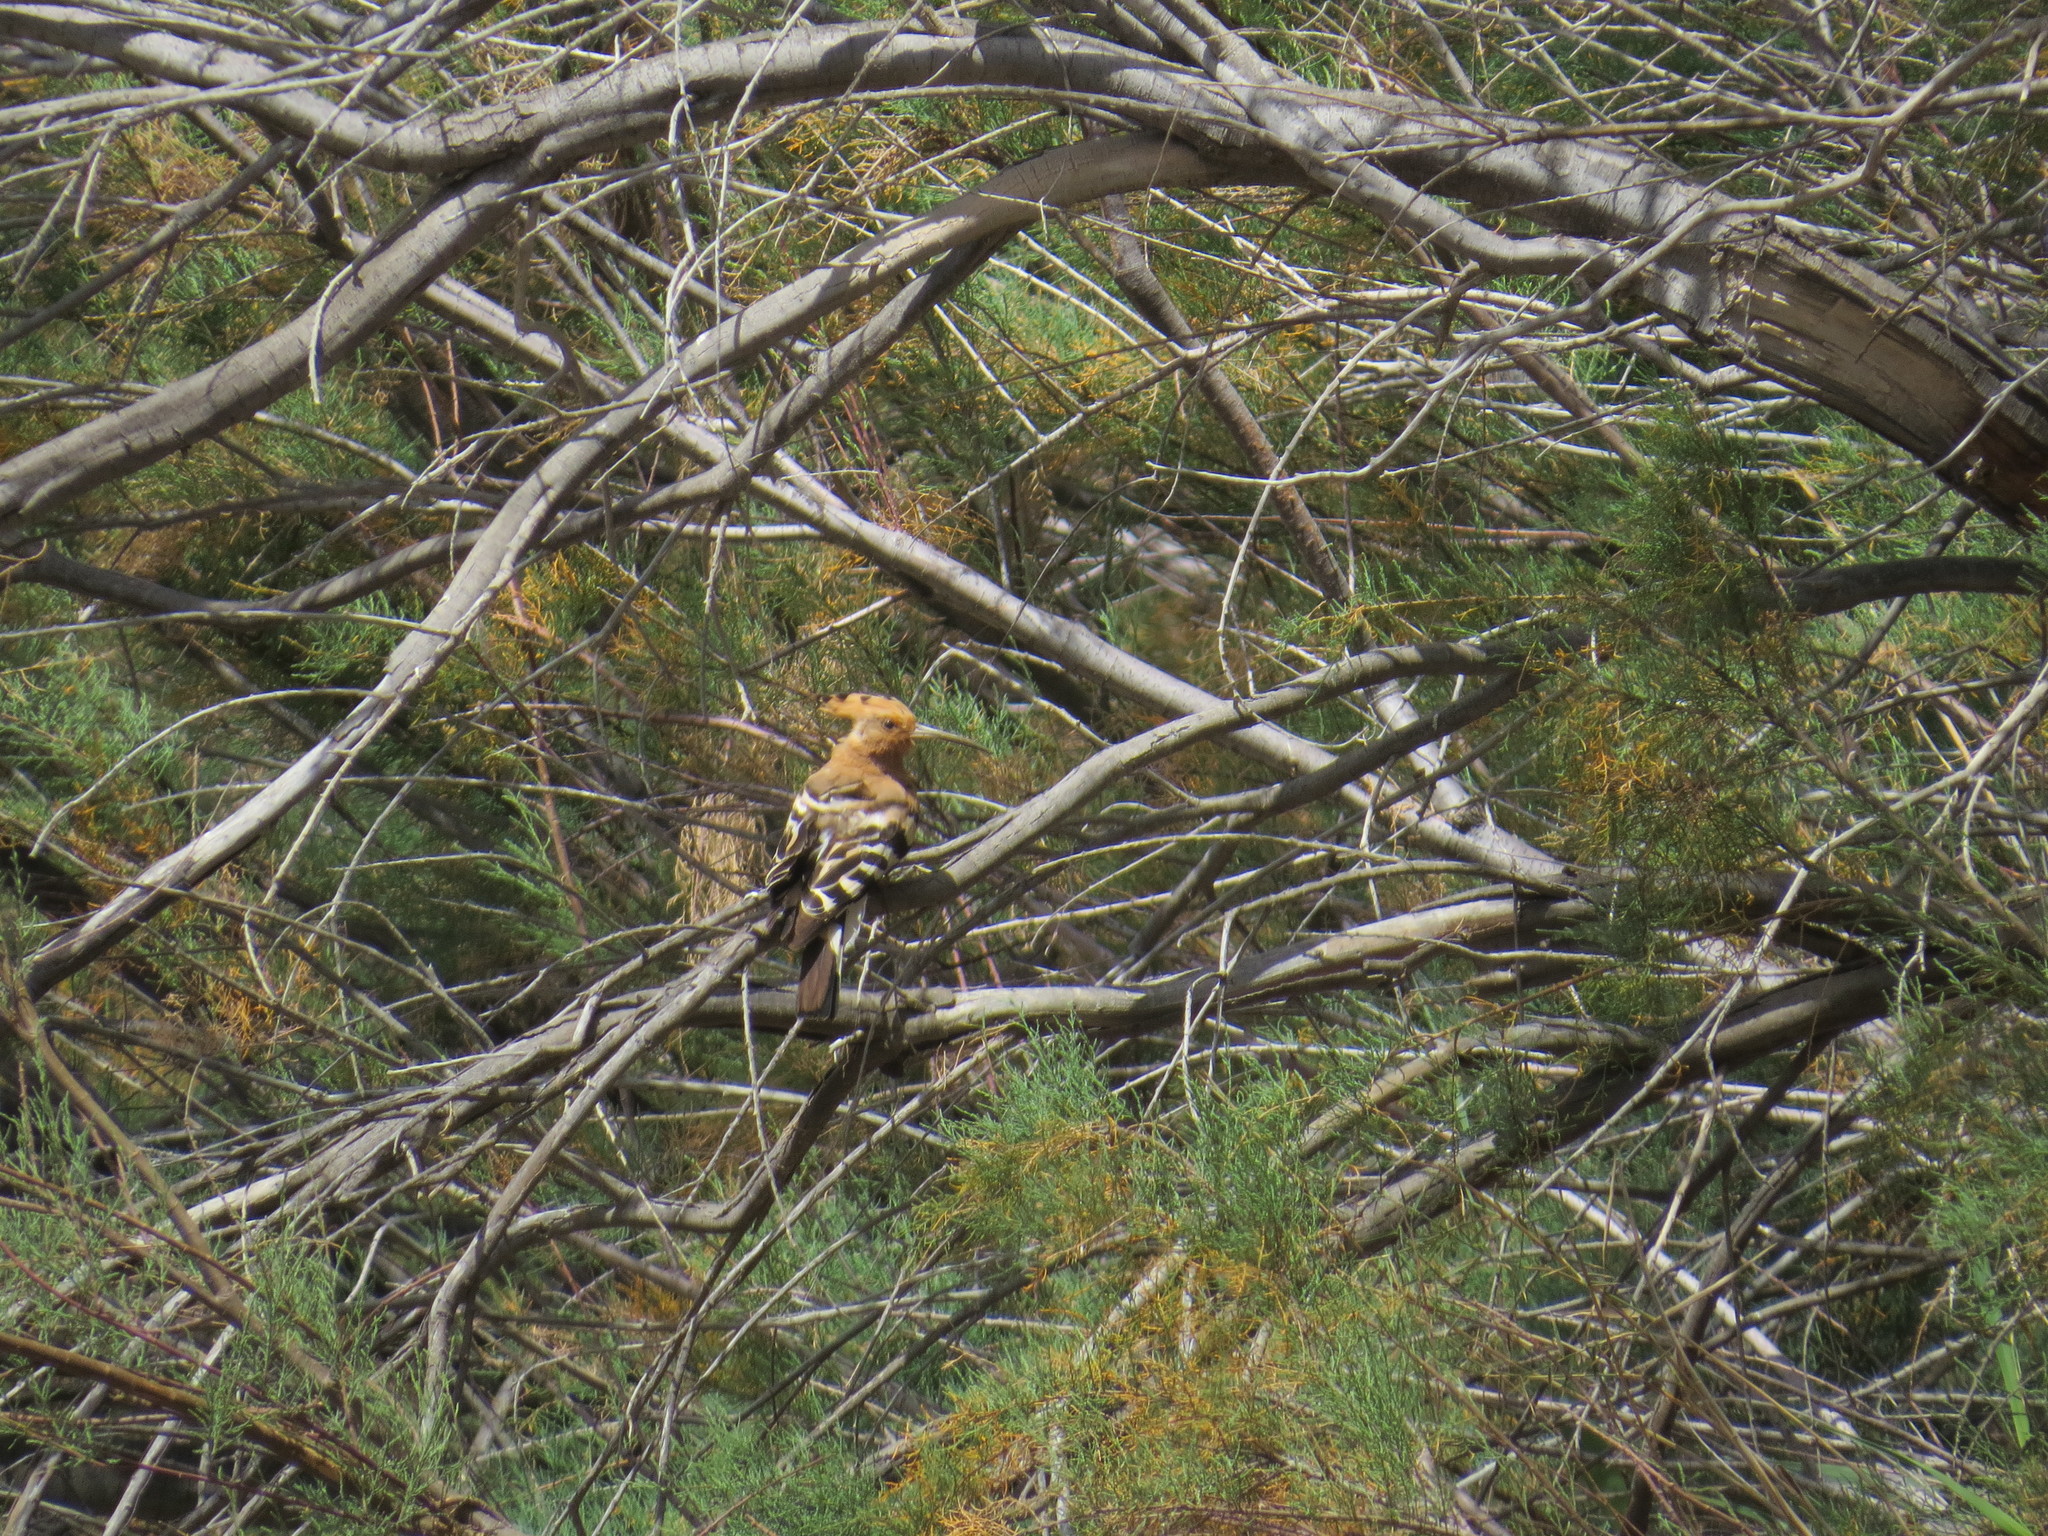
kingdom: Animalia
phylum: Chordata
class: Aves
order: Bucerotiformes
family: Upupidae
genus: Upupa
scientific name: Upupa epops
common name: Eurasian hoopoe
